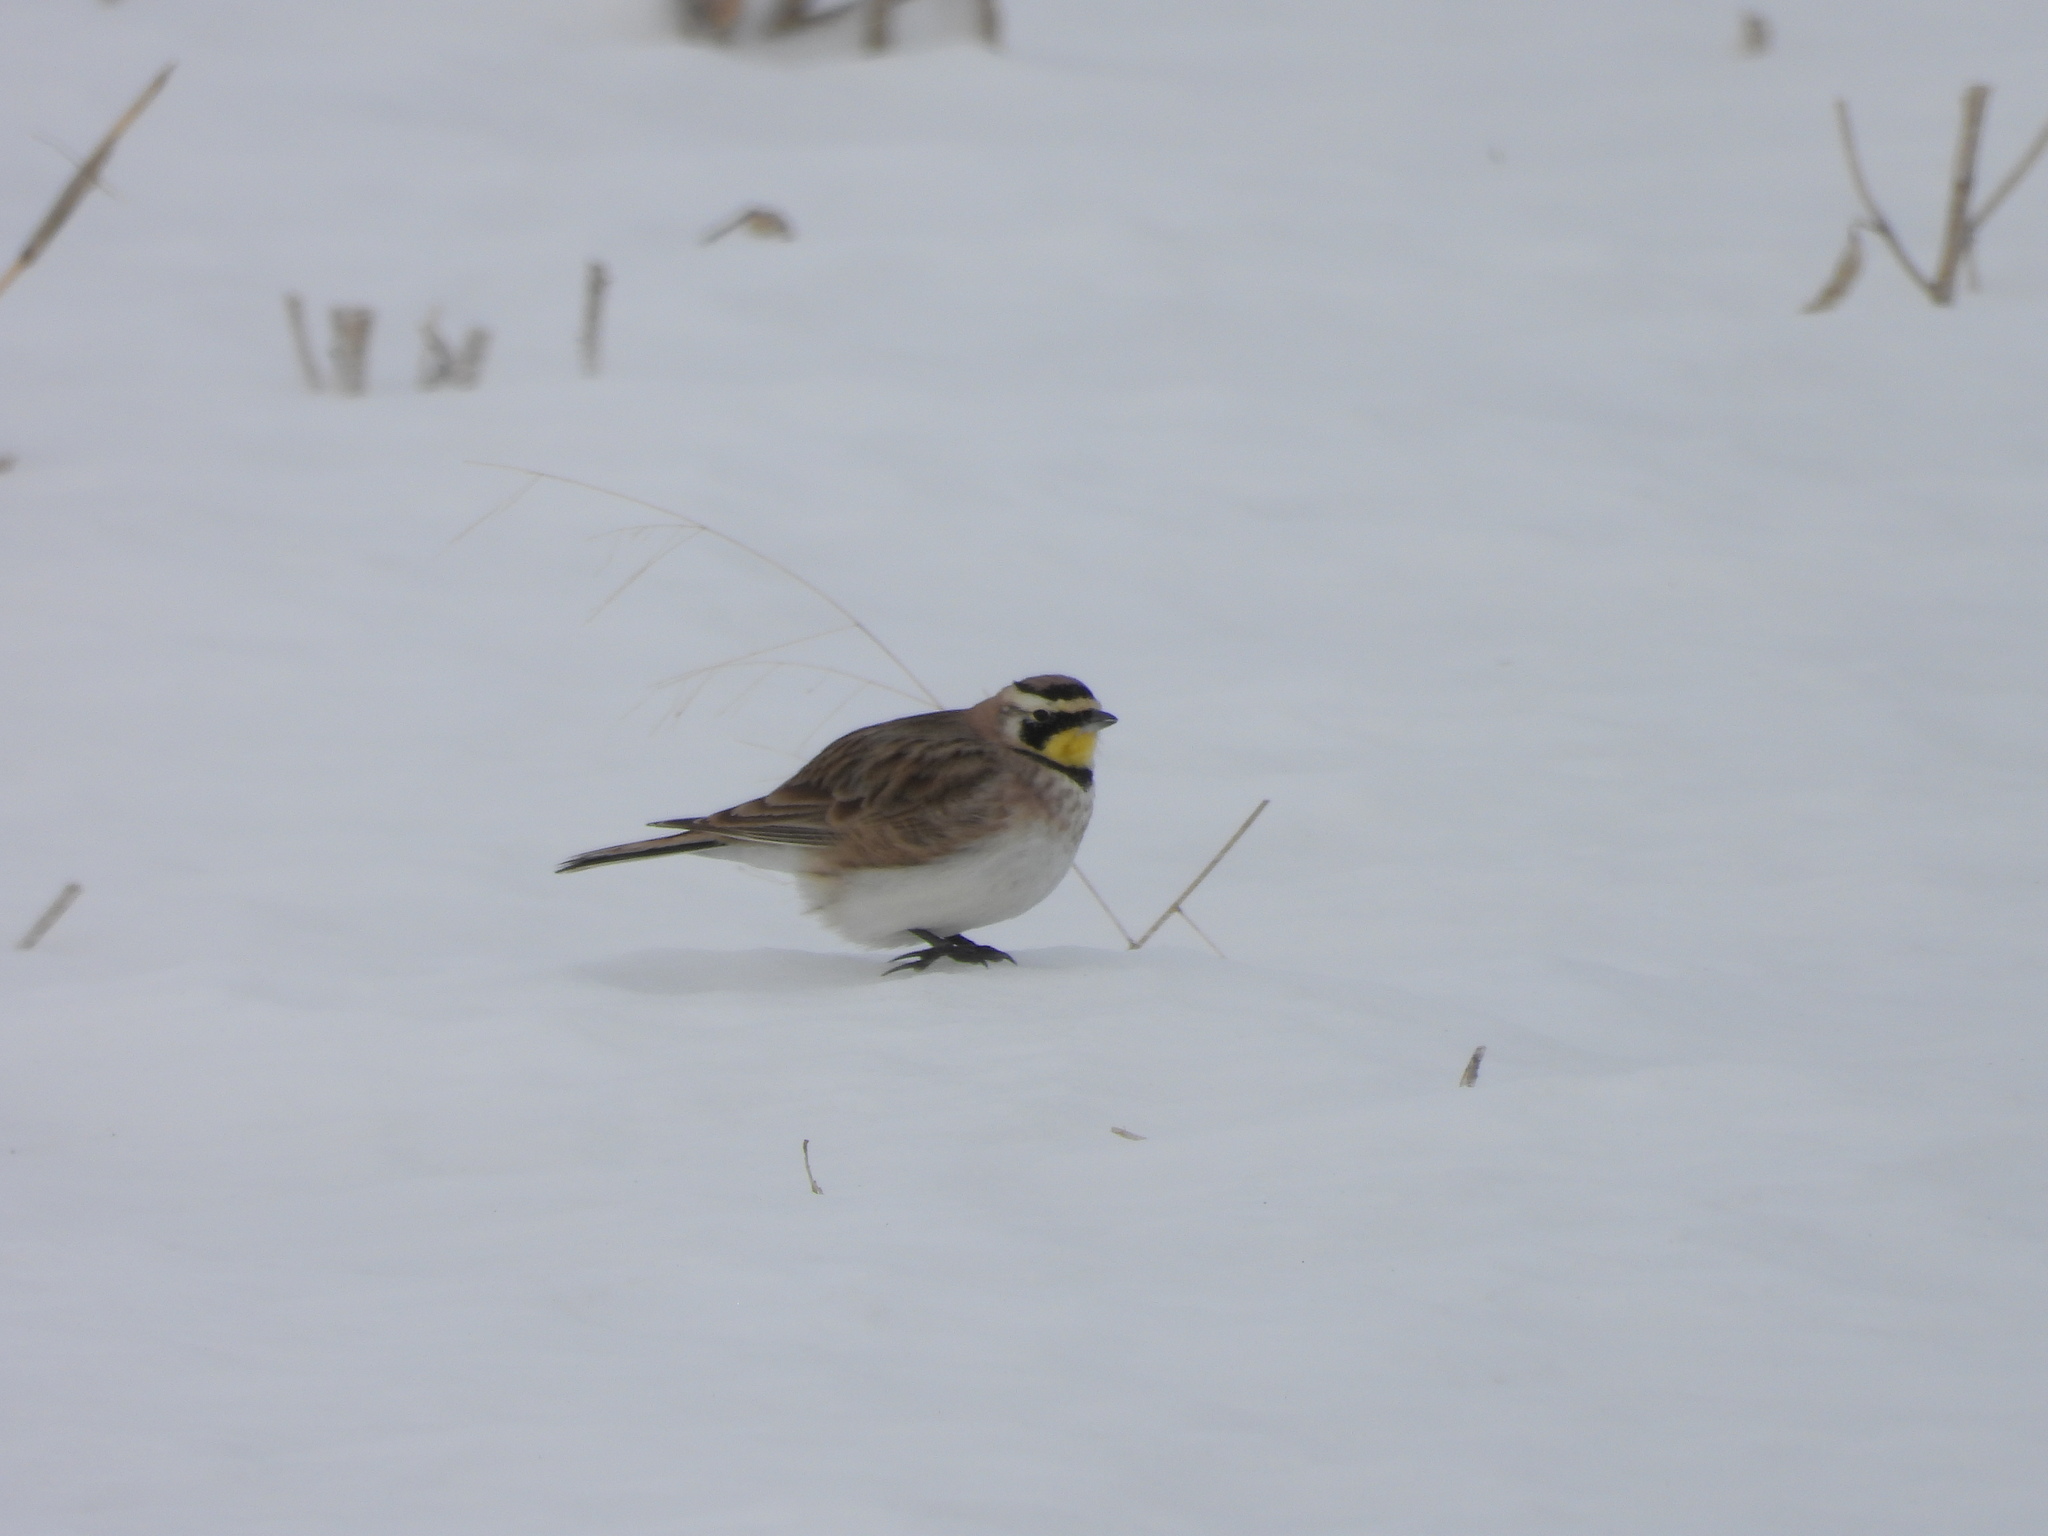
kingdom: Animalia
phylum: Chordata
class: Aves
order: Passeriformes
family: Alaudidae
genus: Eremophila
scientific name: Eremophila alpestris
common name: Horned lark
